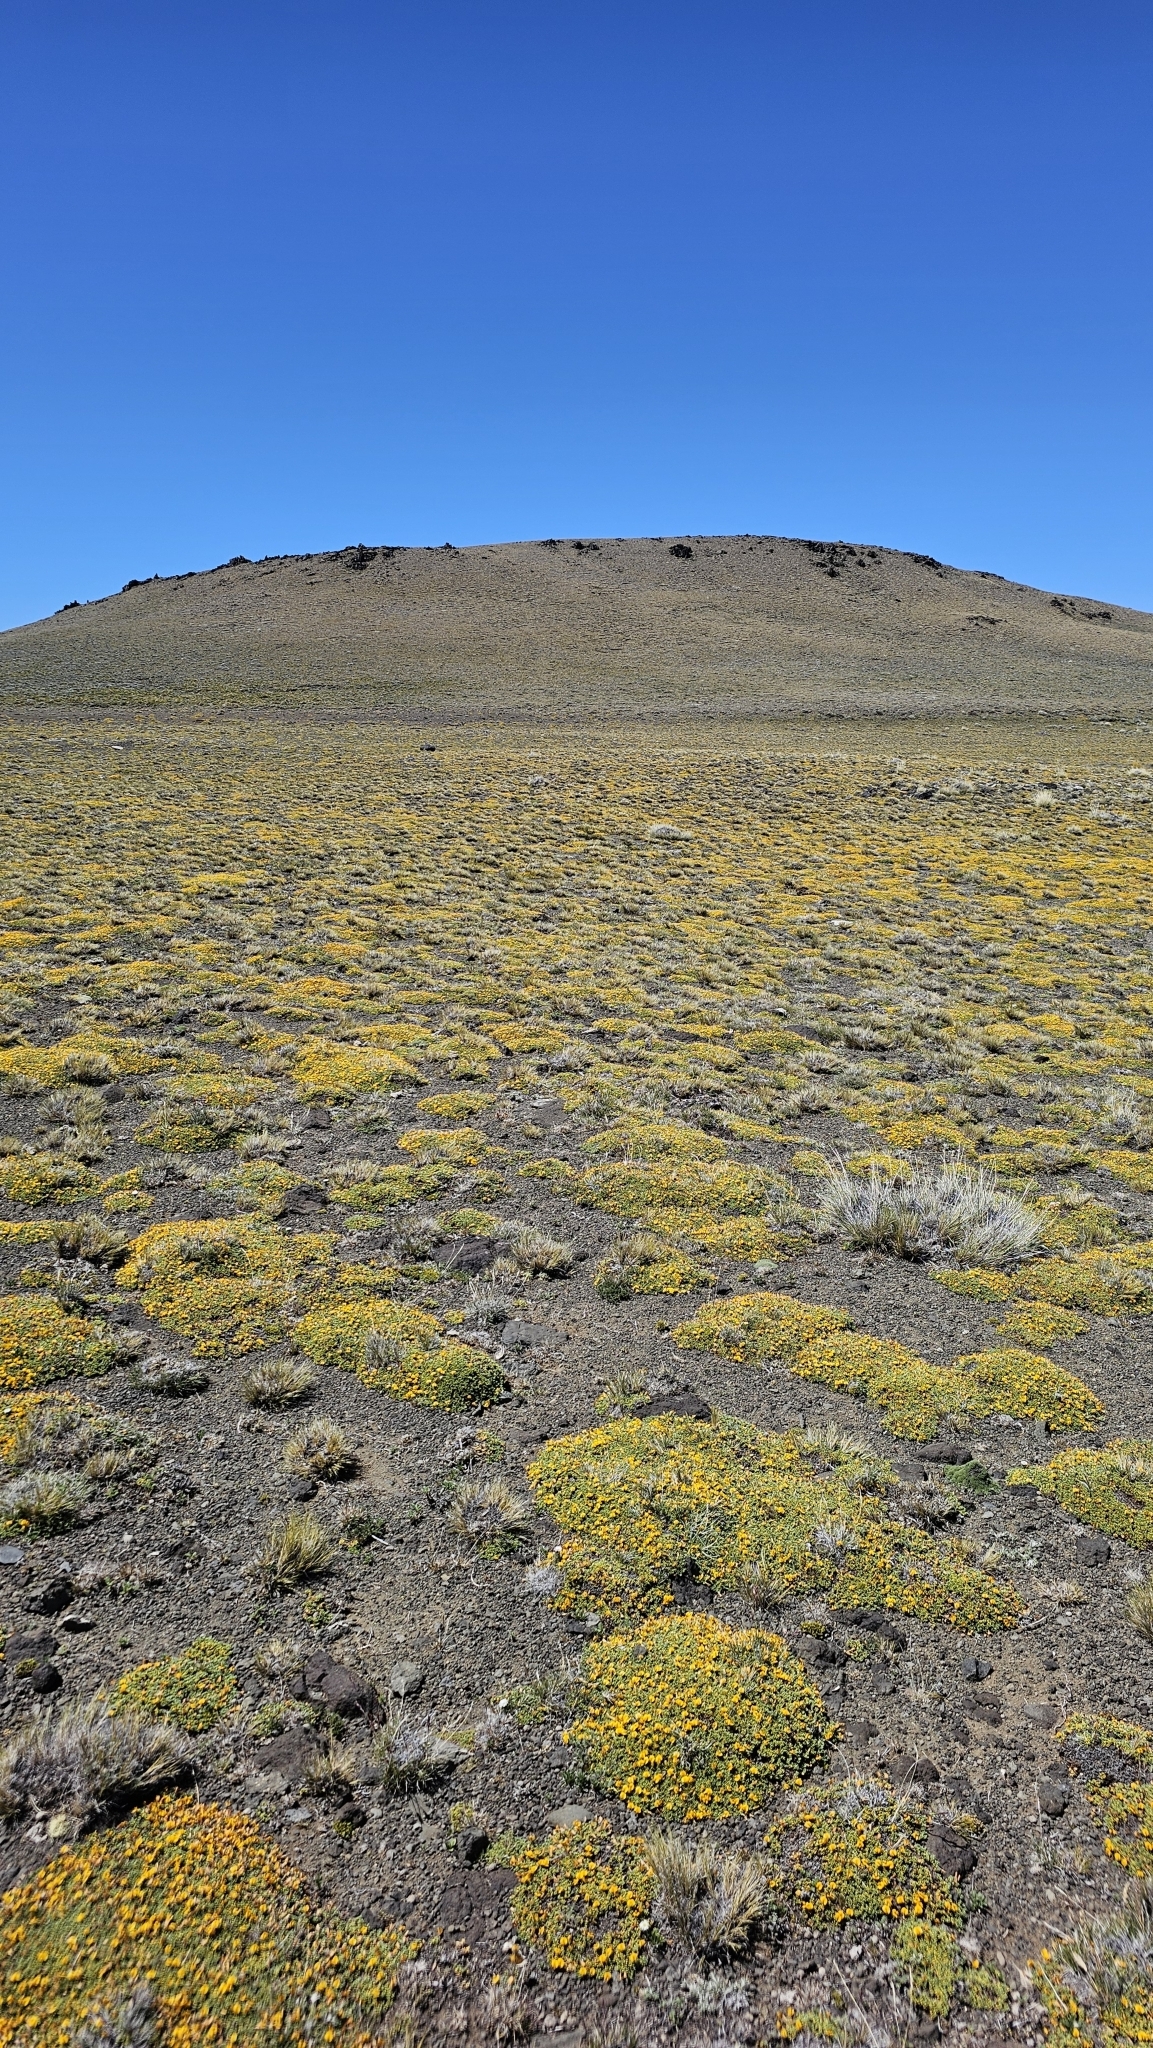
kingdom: Plantae
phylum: Tracheophyta
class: Magnoliopsida
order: Fabales
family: Fabaceae
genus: Adesmia
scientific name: Adesmia salicornioides
